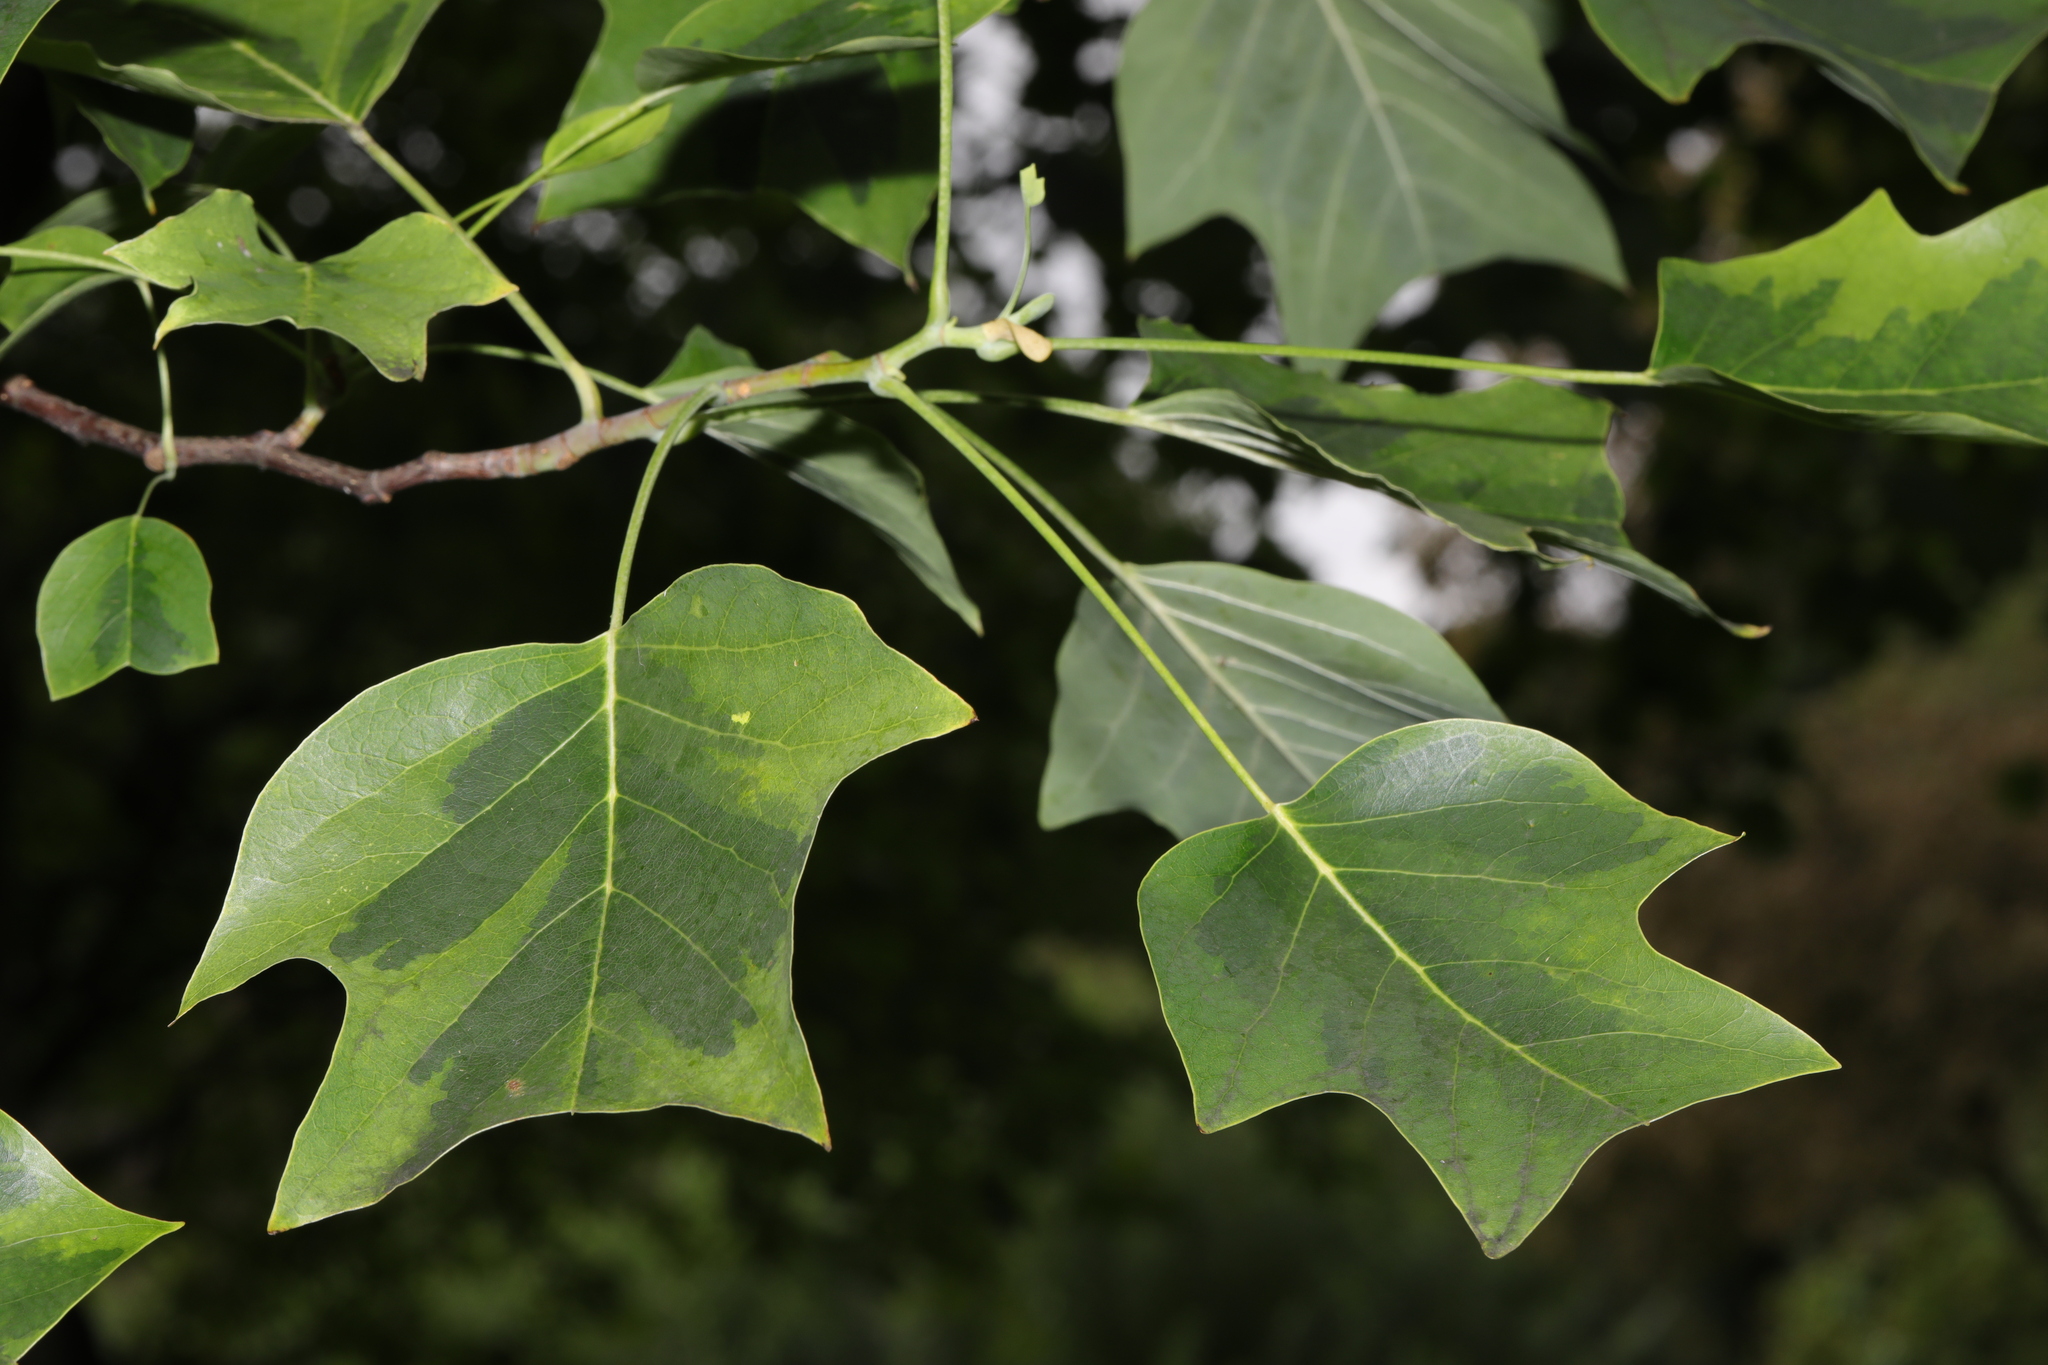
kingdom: Plantae
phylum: Tracheophyta
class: Magnoliopsida
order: Magnoliales
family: Magnoliaceae
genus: Liriodendron
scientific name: Liriodendron tulipifera
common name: Tulip tree
